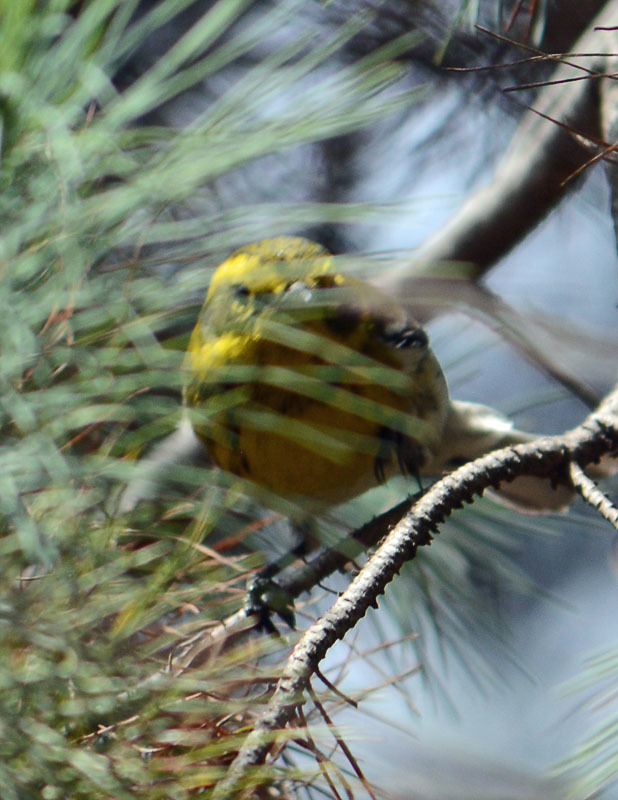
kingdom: Animalia
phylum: Chordata
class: Aves
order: Passeriformes
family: Parulidae
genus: Setophaga
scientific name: Setophaga townsendi
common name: Townsend's warbler
